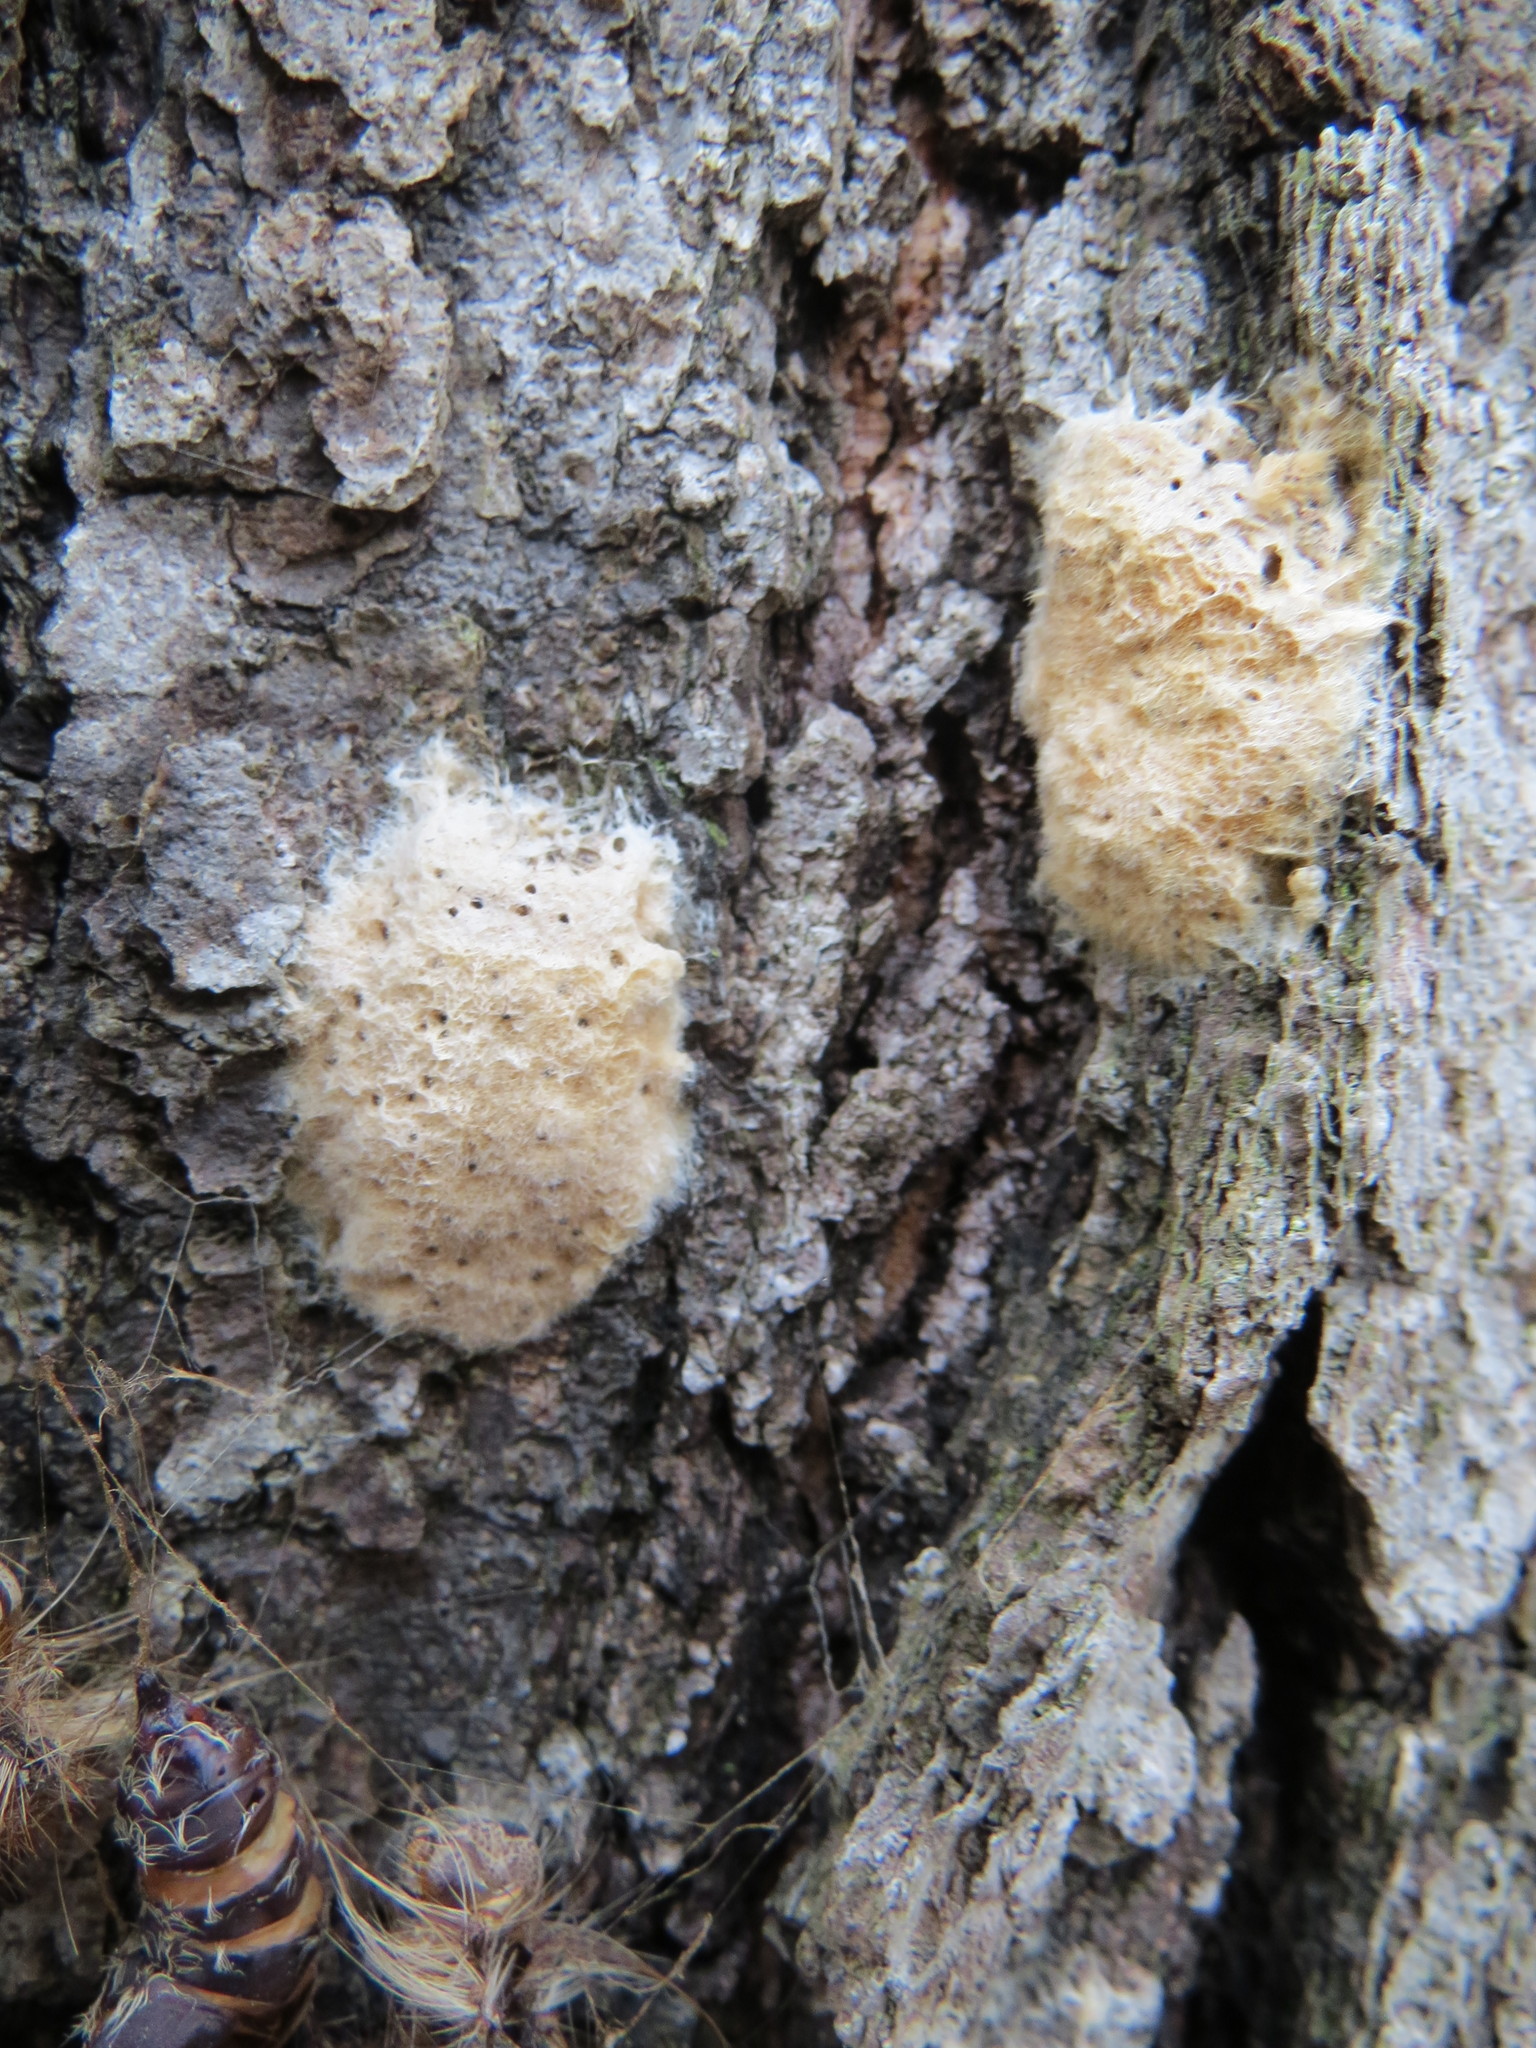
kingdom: Animalia
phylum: Arthropoda
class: Insecta
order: Lepidoptera
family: Erebidae
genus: Lymantria
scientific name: Lymantria dispar
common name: Gypsy moth
